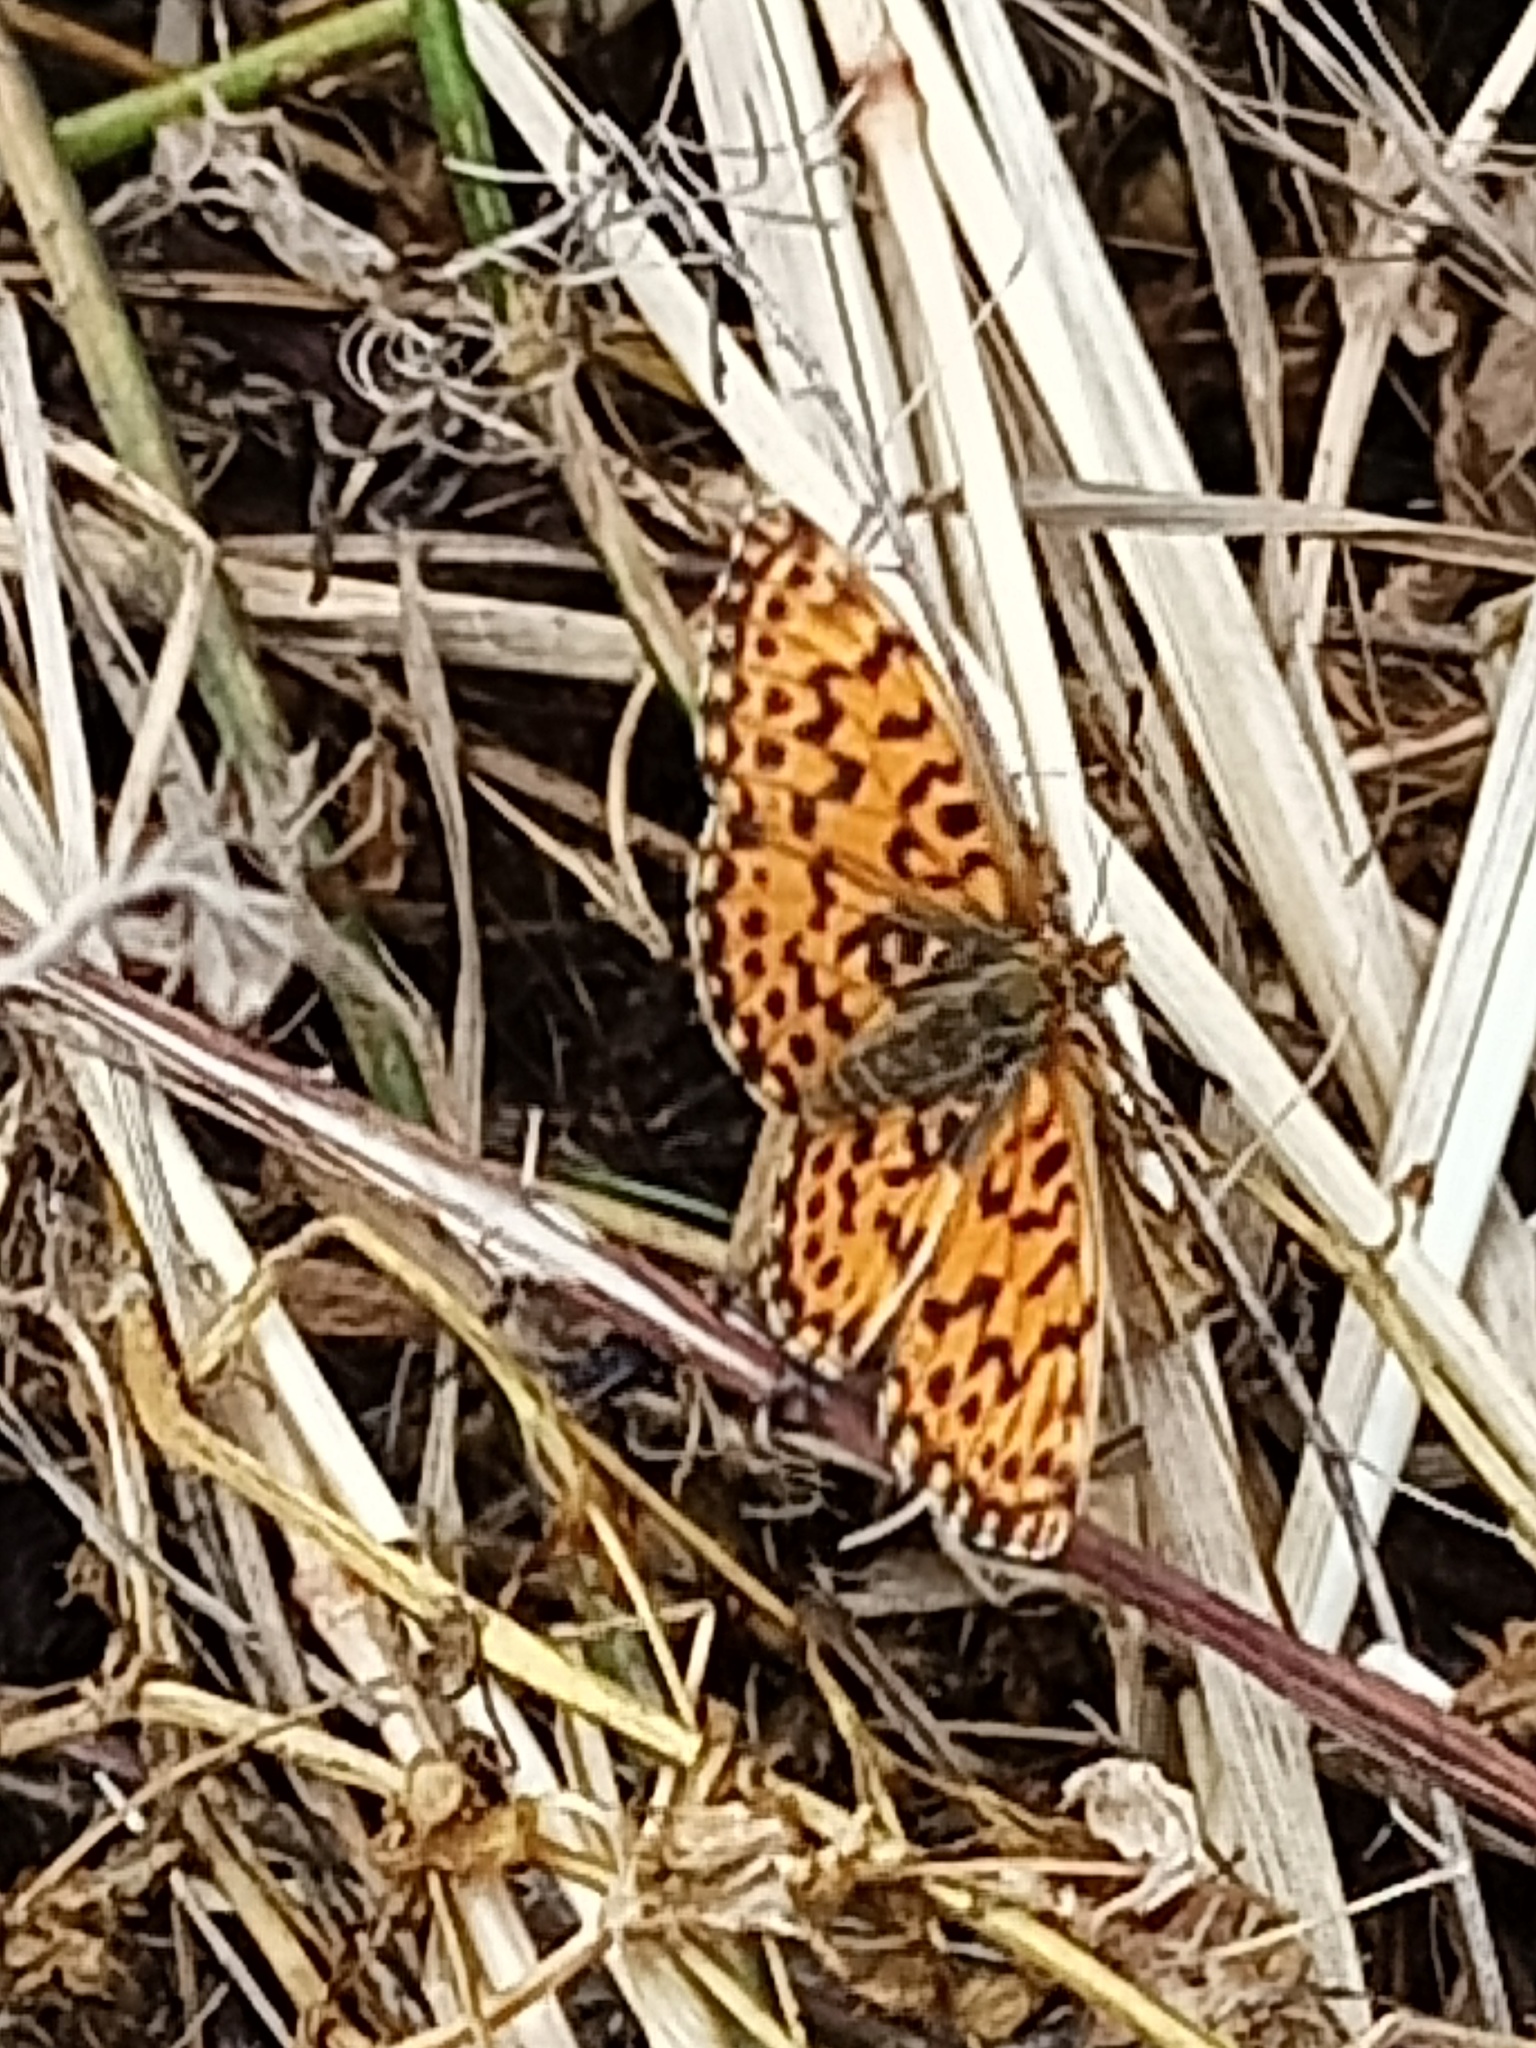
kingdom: Animalia
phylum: Arthropoda
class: Insecta
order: Lepidoptera
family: Nymphalidae
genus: Boloria
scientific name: Boloria dia
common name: Weaver's fritillary
